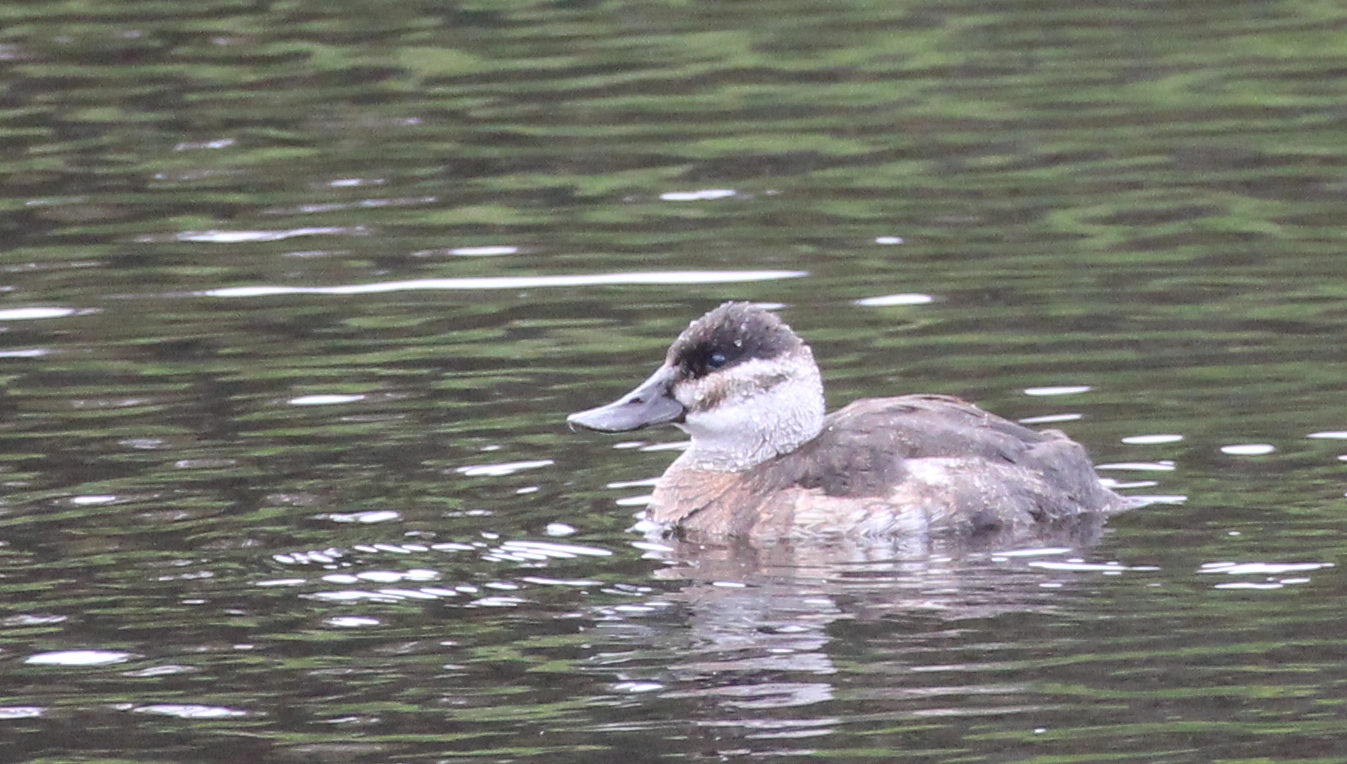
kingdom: Animalia
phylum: Chordata
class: Aves
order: Anseriformes
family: Anatidae
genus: Oxyura
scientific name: Oxyura jamaicensis
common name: Ruddy duck
